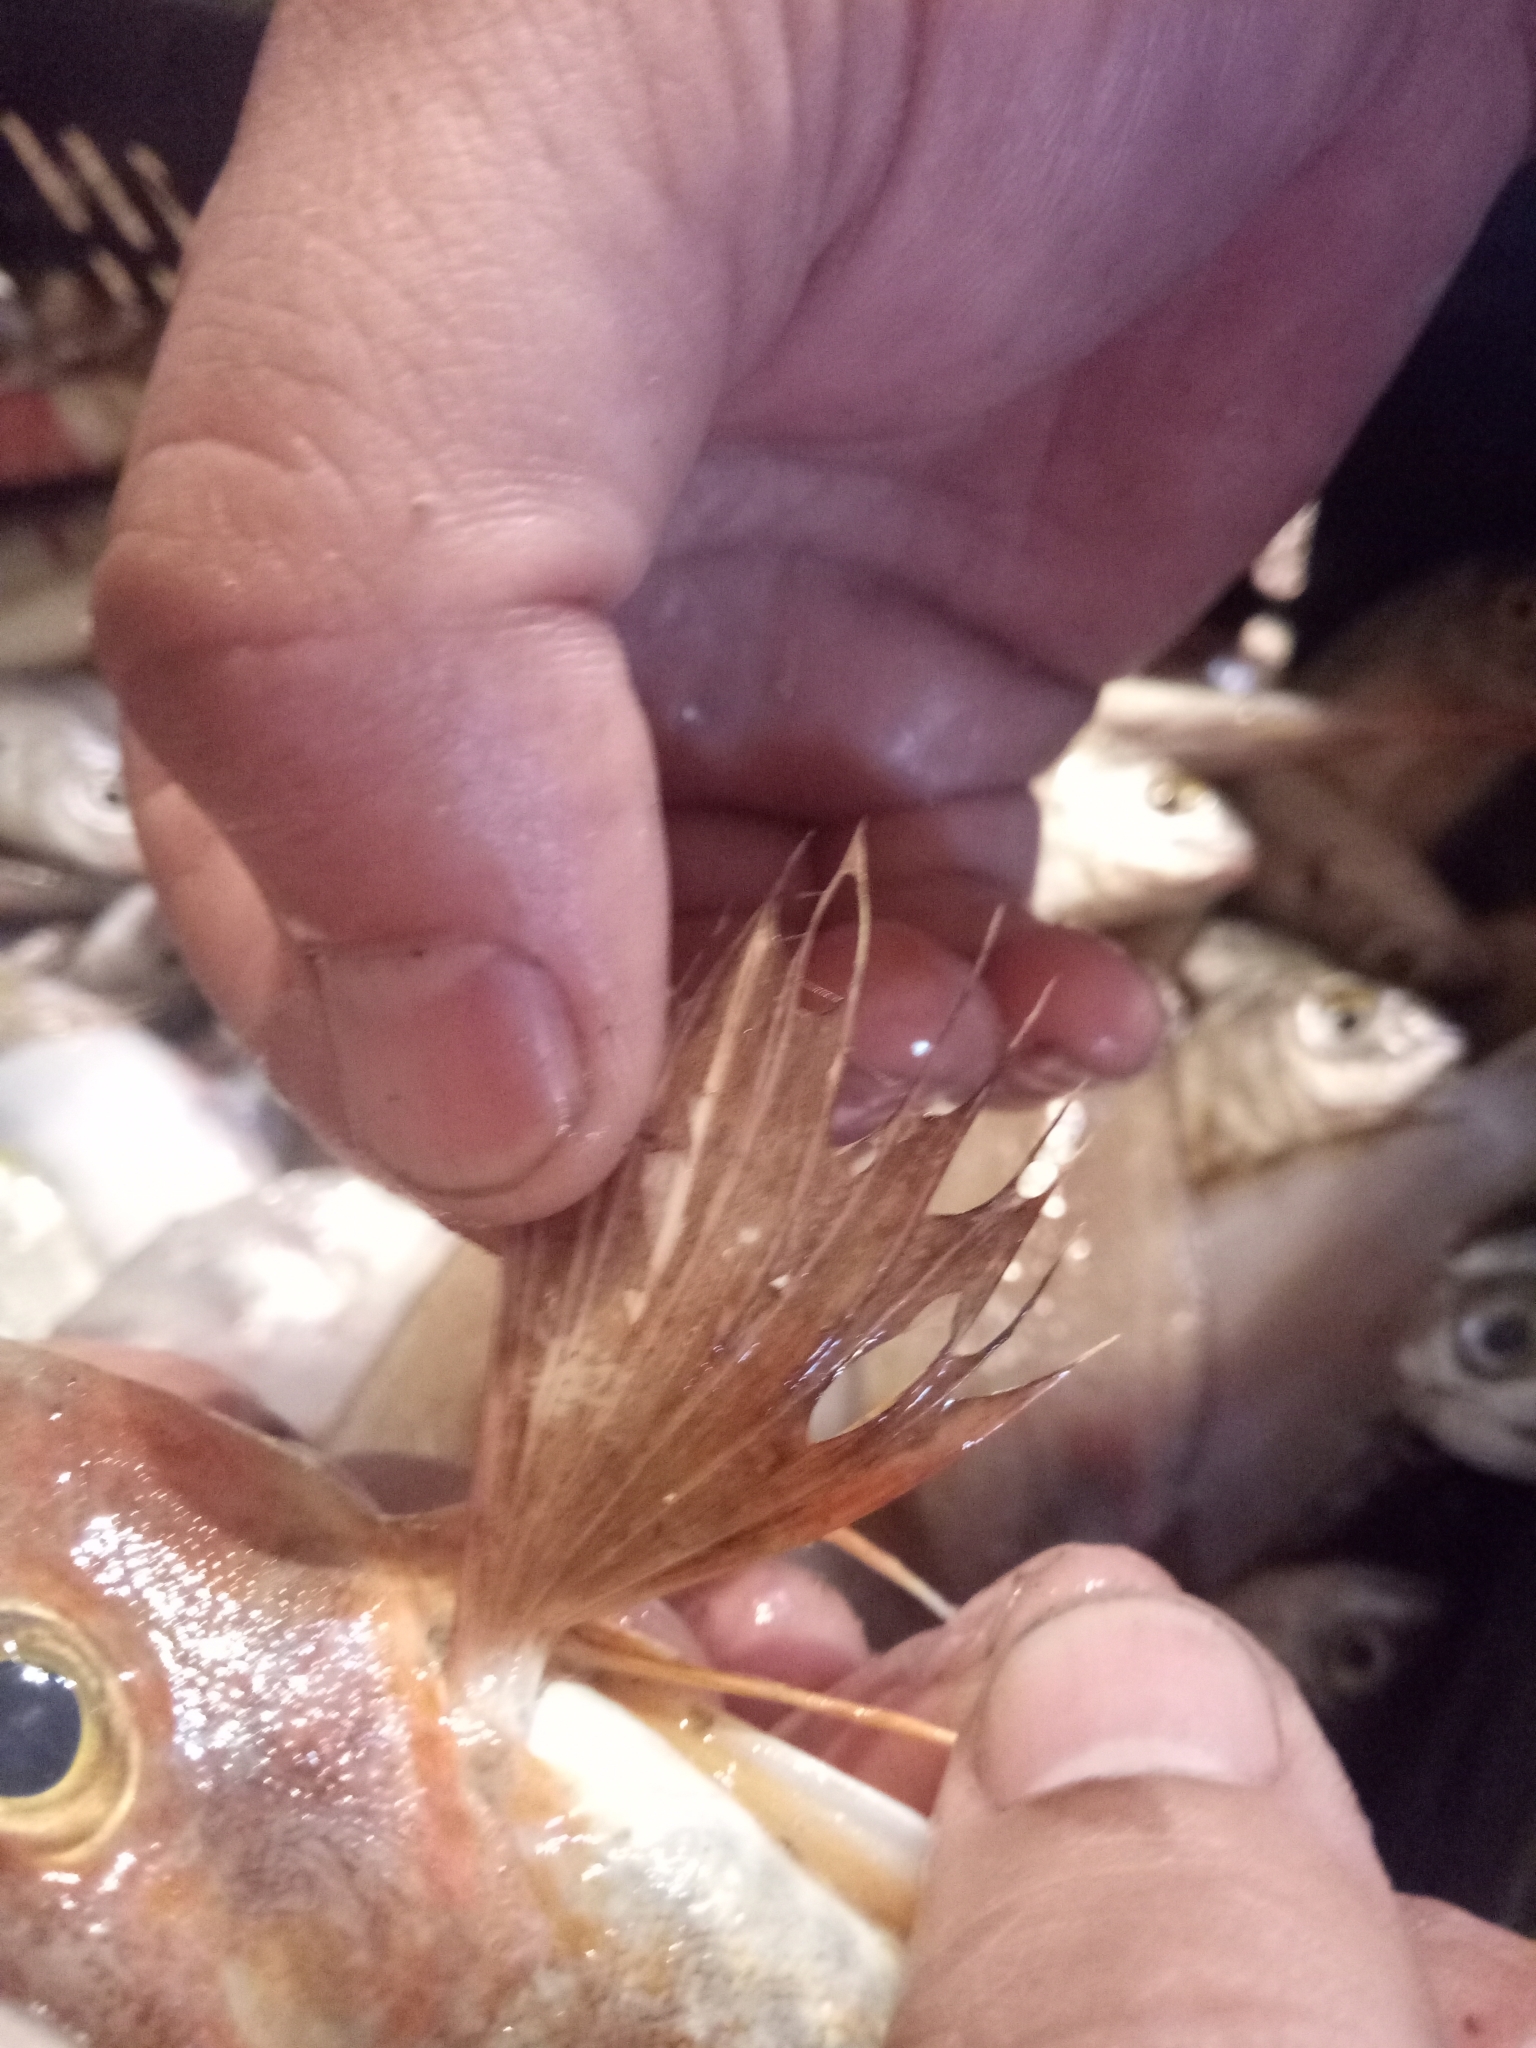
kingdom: Animalia
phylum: Chordata
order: Scorpaeniformes
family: Triglidae
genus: Chelidonichthys
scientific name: Chelidonichthys cuculus
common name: Red gurnard
